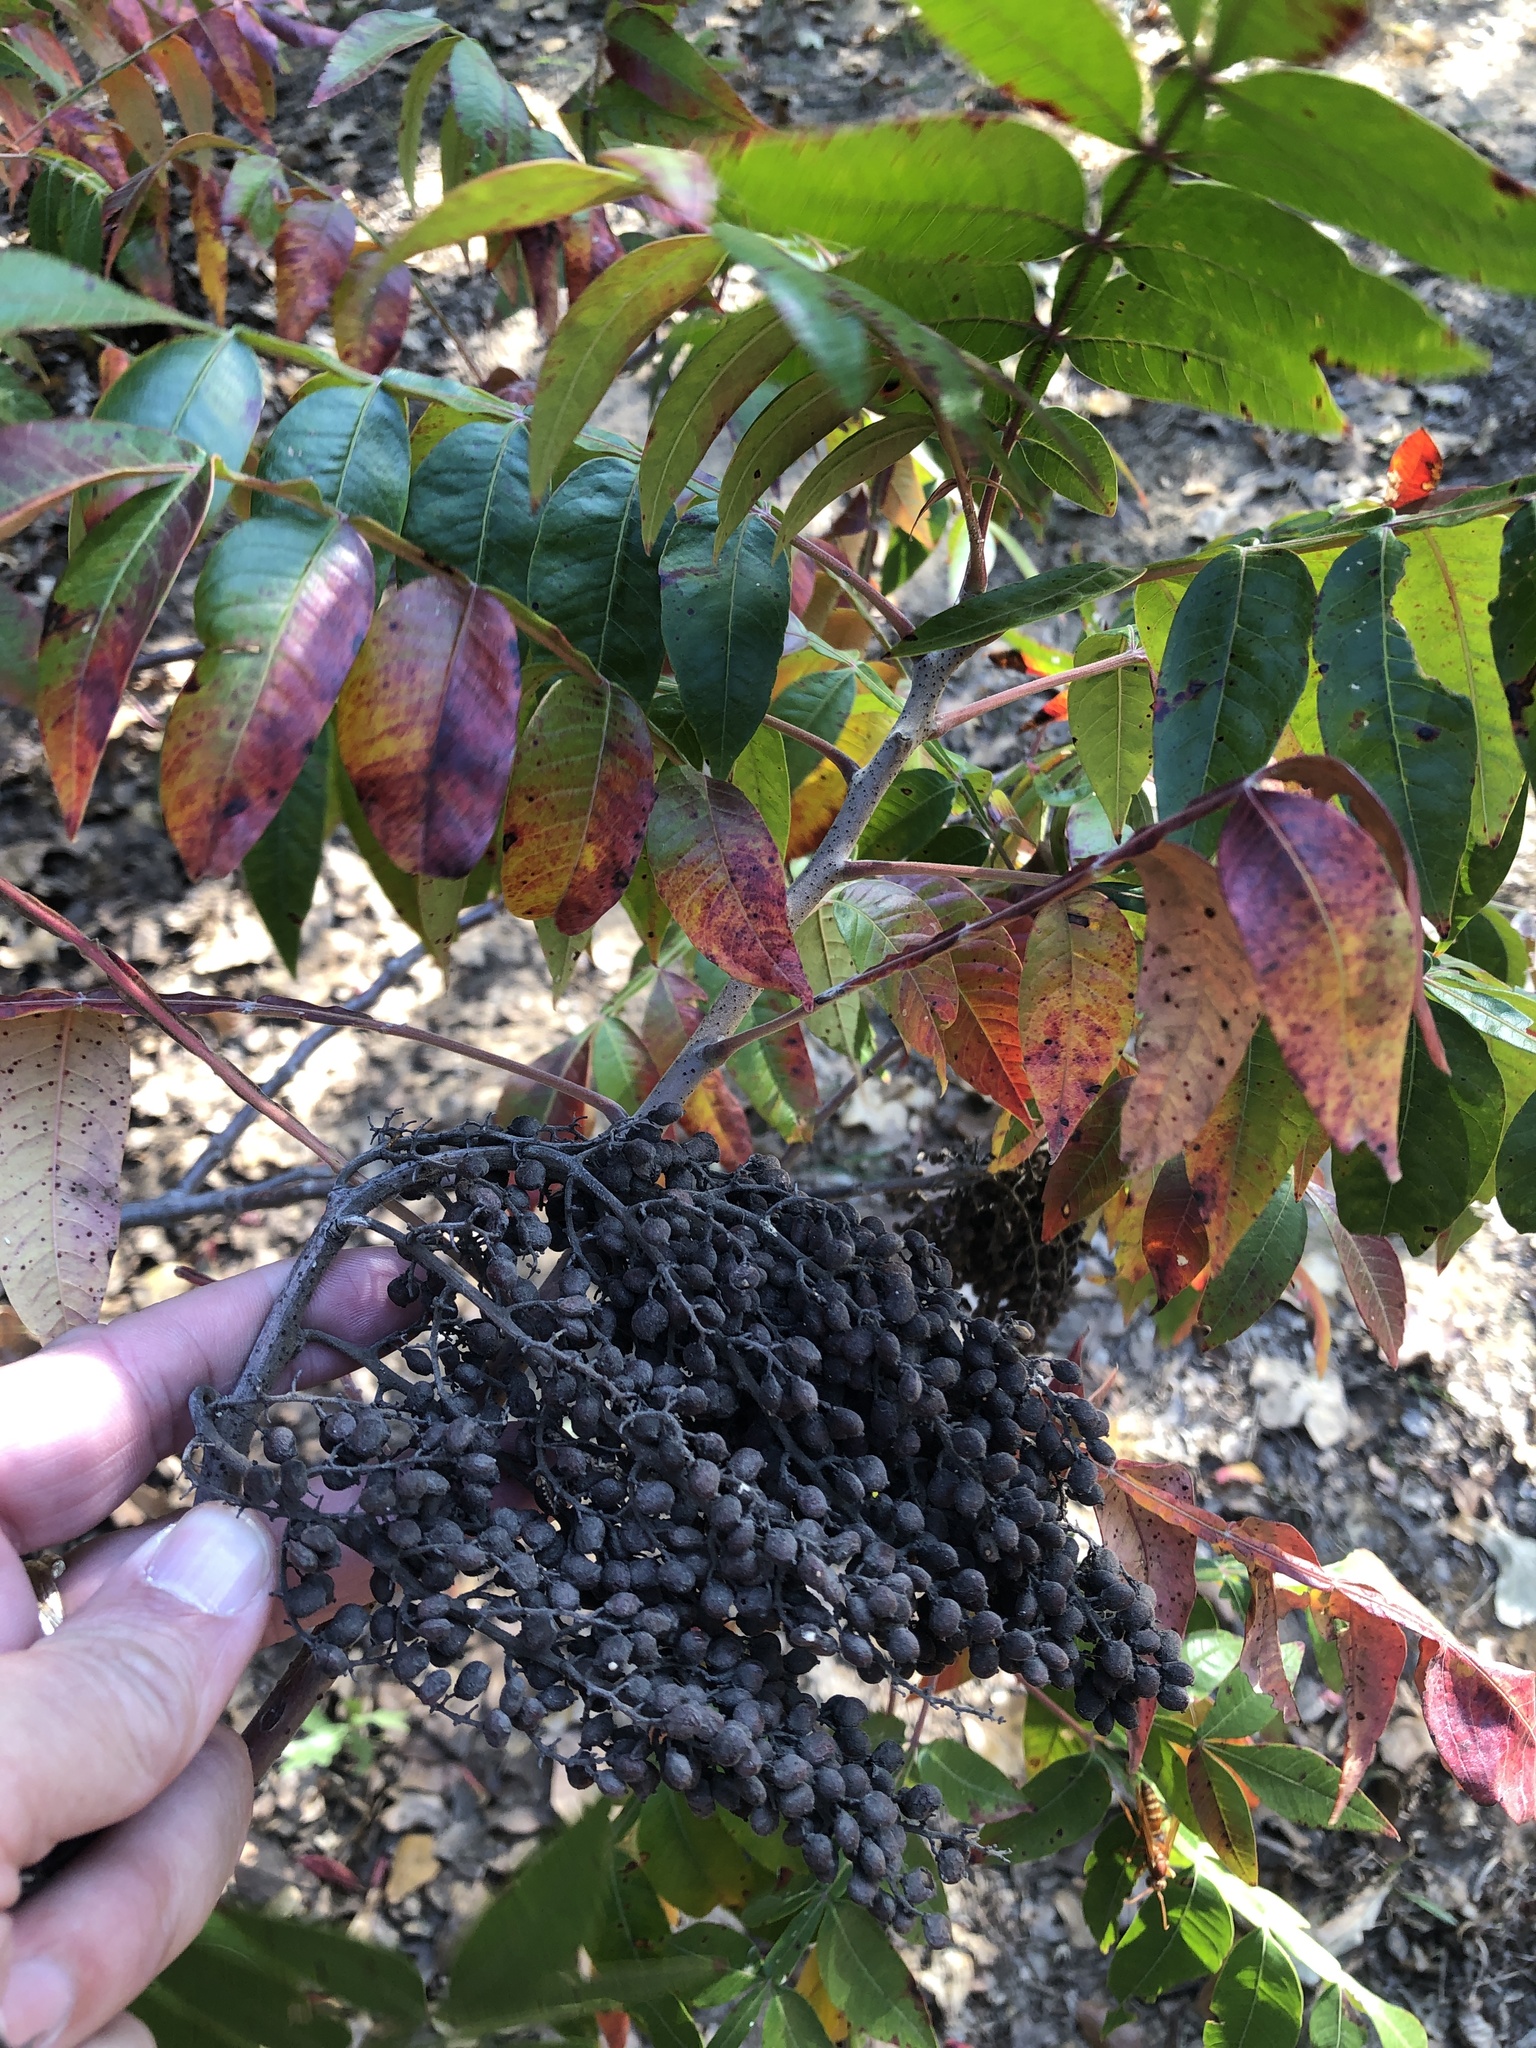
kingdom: Plantae
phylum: Tracheophyta
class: Magnoliopsida
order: Sapindales
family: Anacardiaceae
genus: Rhus
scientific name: Rhus copallina
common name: Shining sumac
